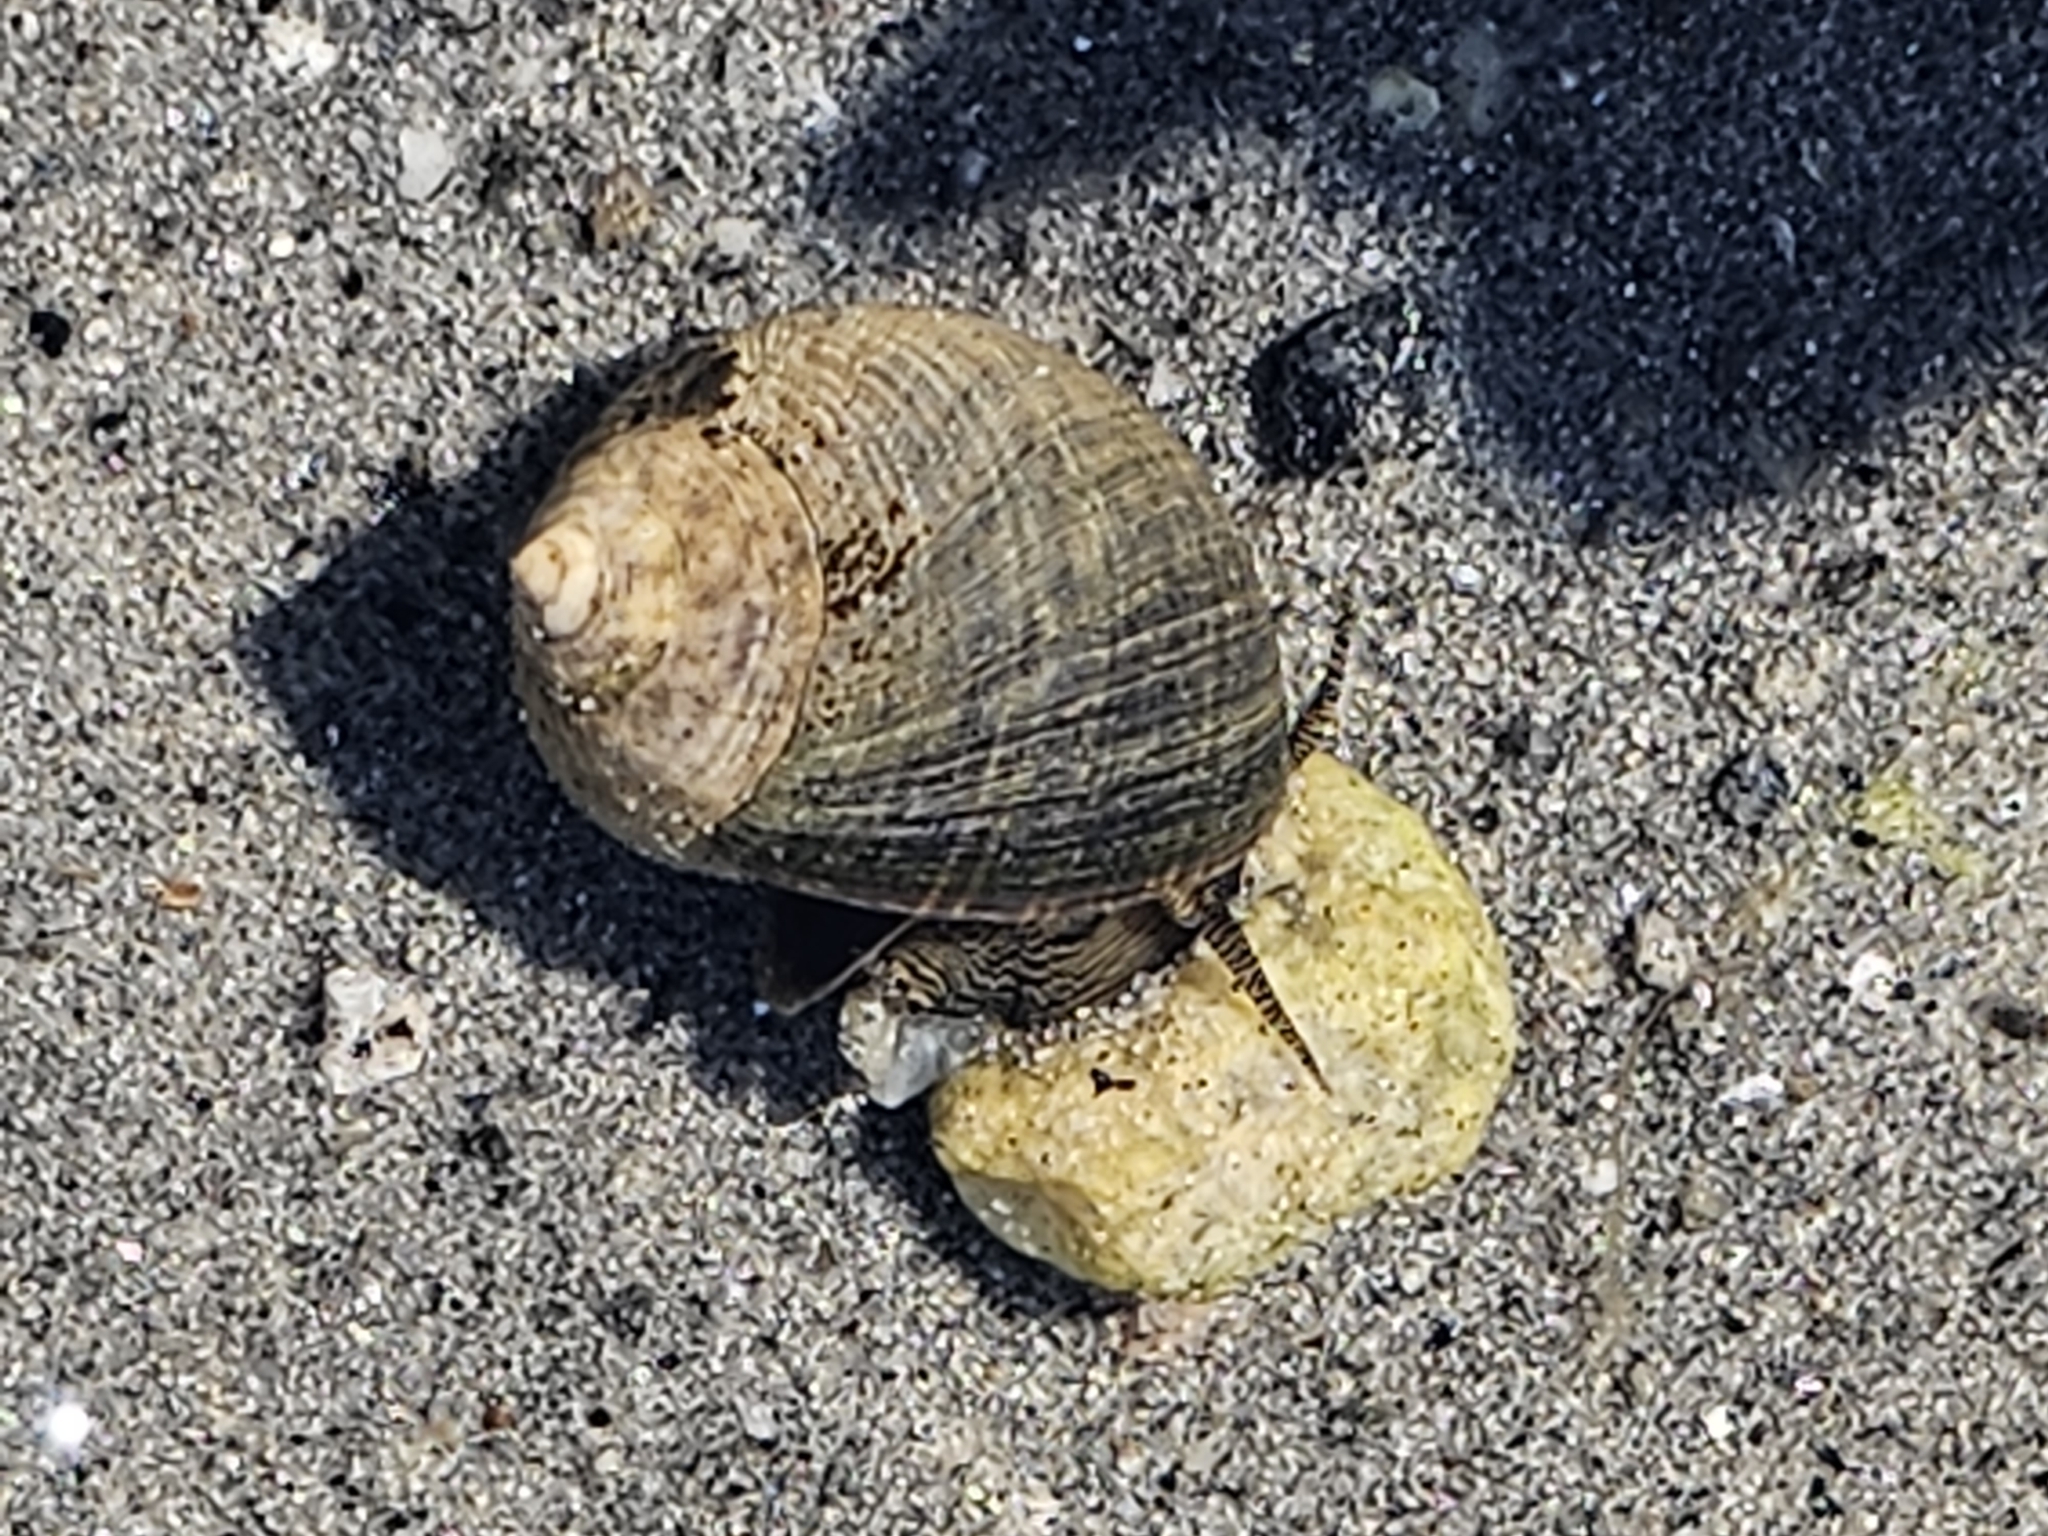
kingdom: Animalia
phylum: Mollusca
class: Gastropoda
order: Littorinimorpha
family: Littorinidae
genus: Littorina
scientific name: Littorina littorea
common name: Common periwinkle
